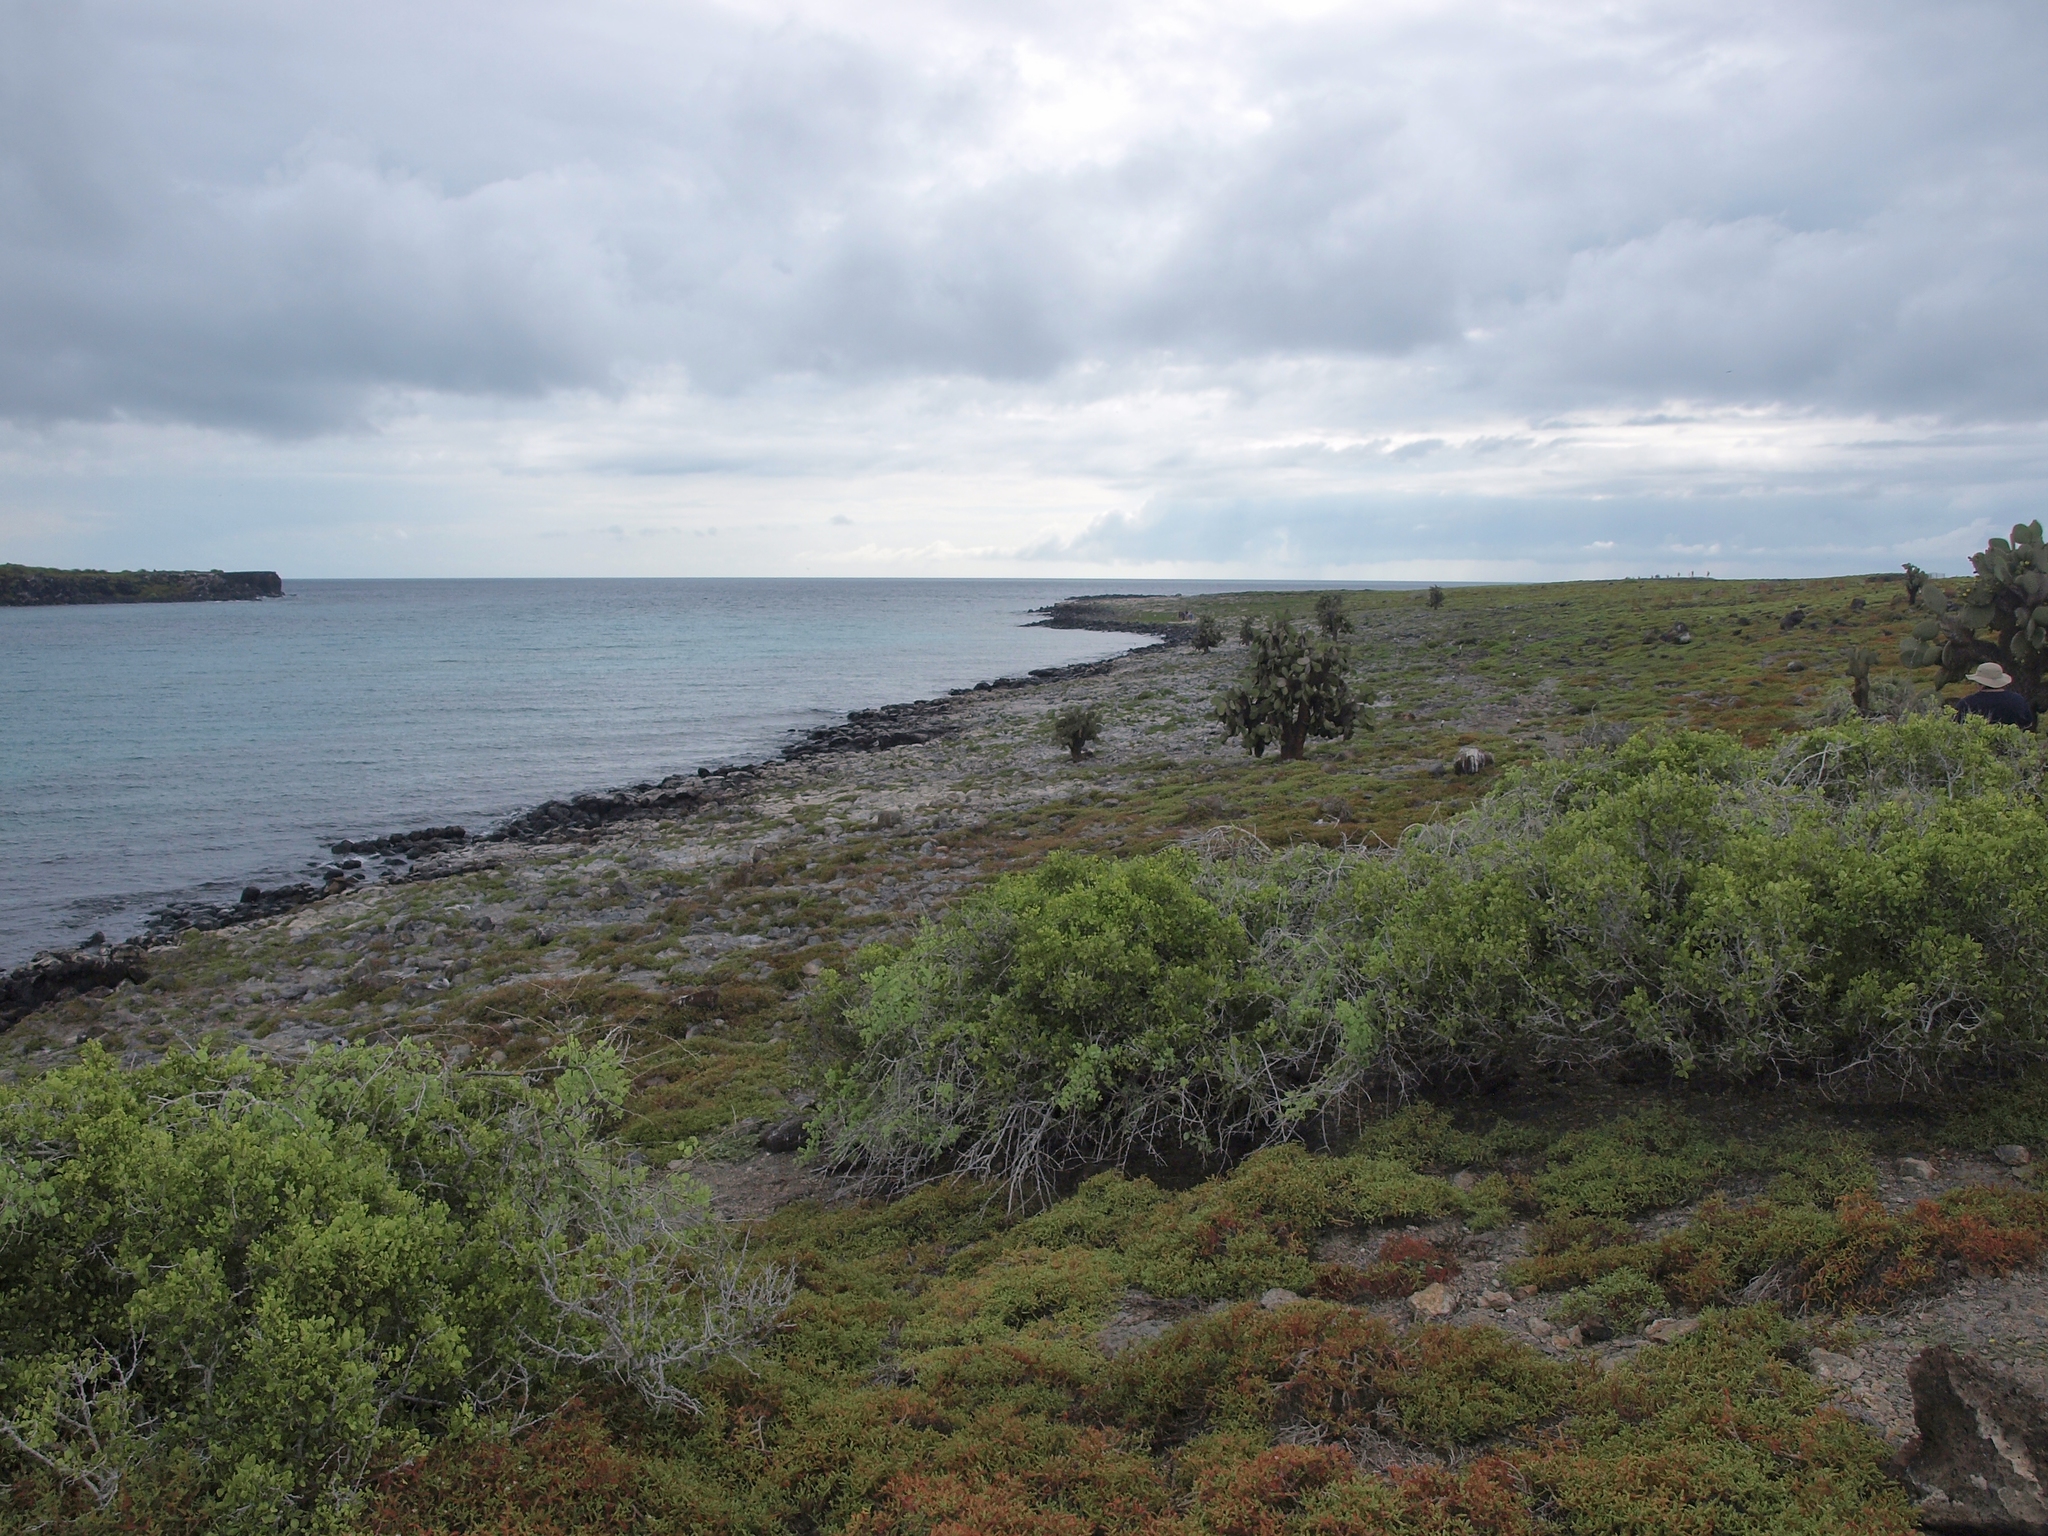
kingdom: Plantae
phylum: Tracheophyta
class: Magnoliopsida
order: Caryophyllales
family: Aizoaceae
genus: Sesuvium
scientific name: Sesuvium edmonstonei
